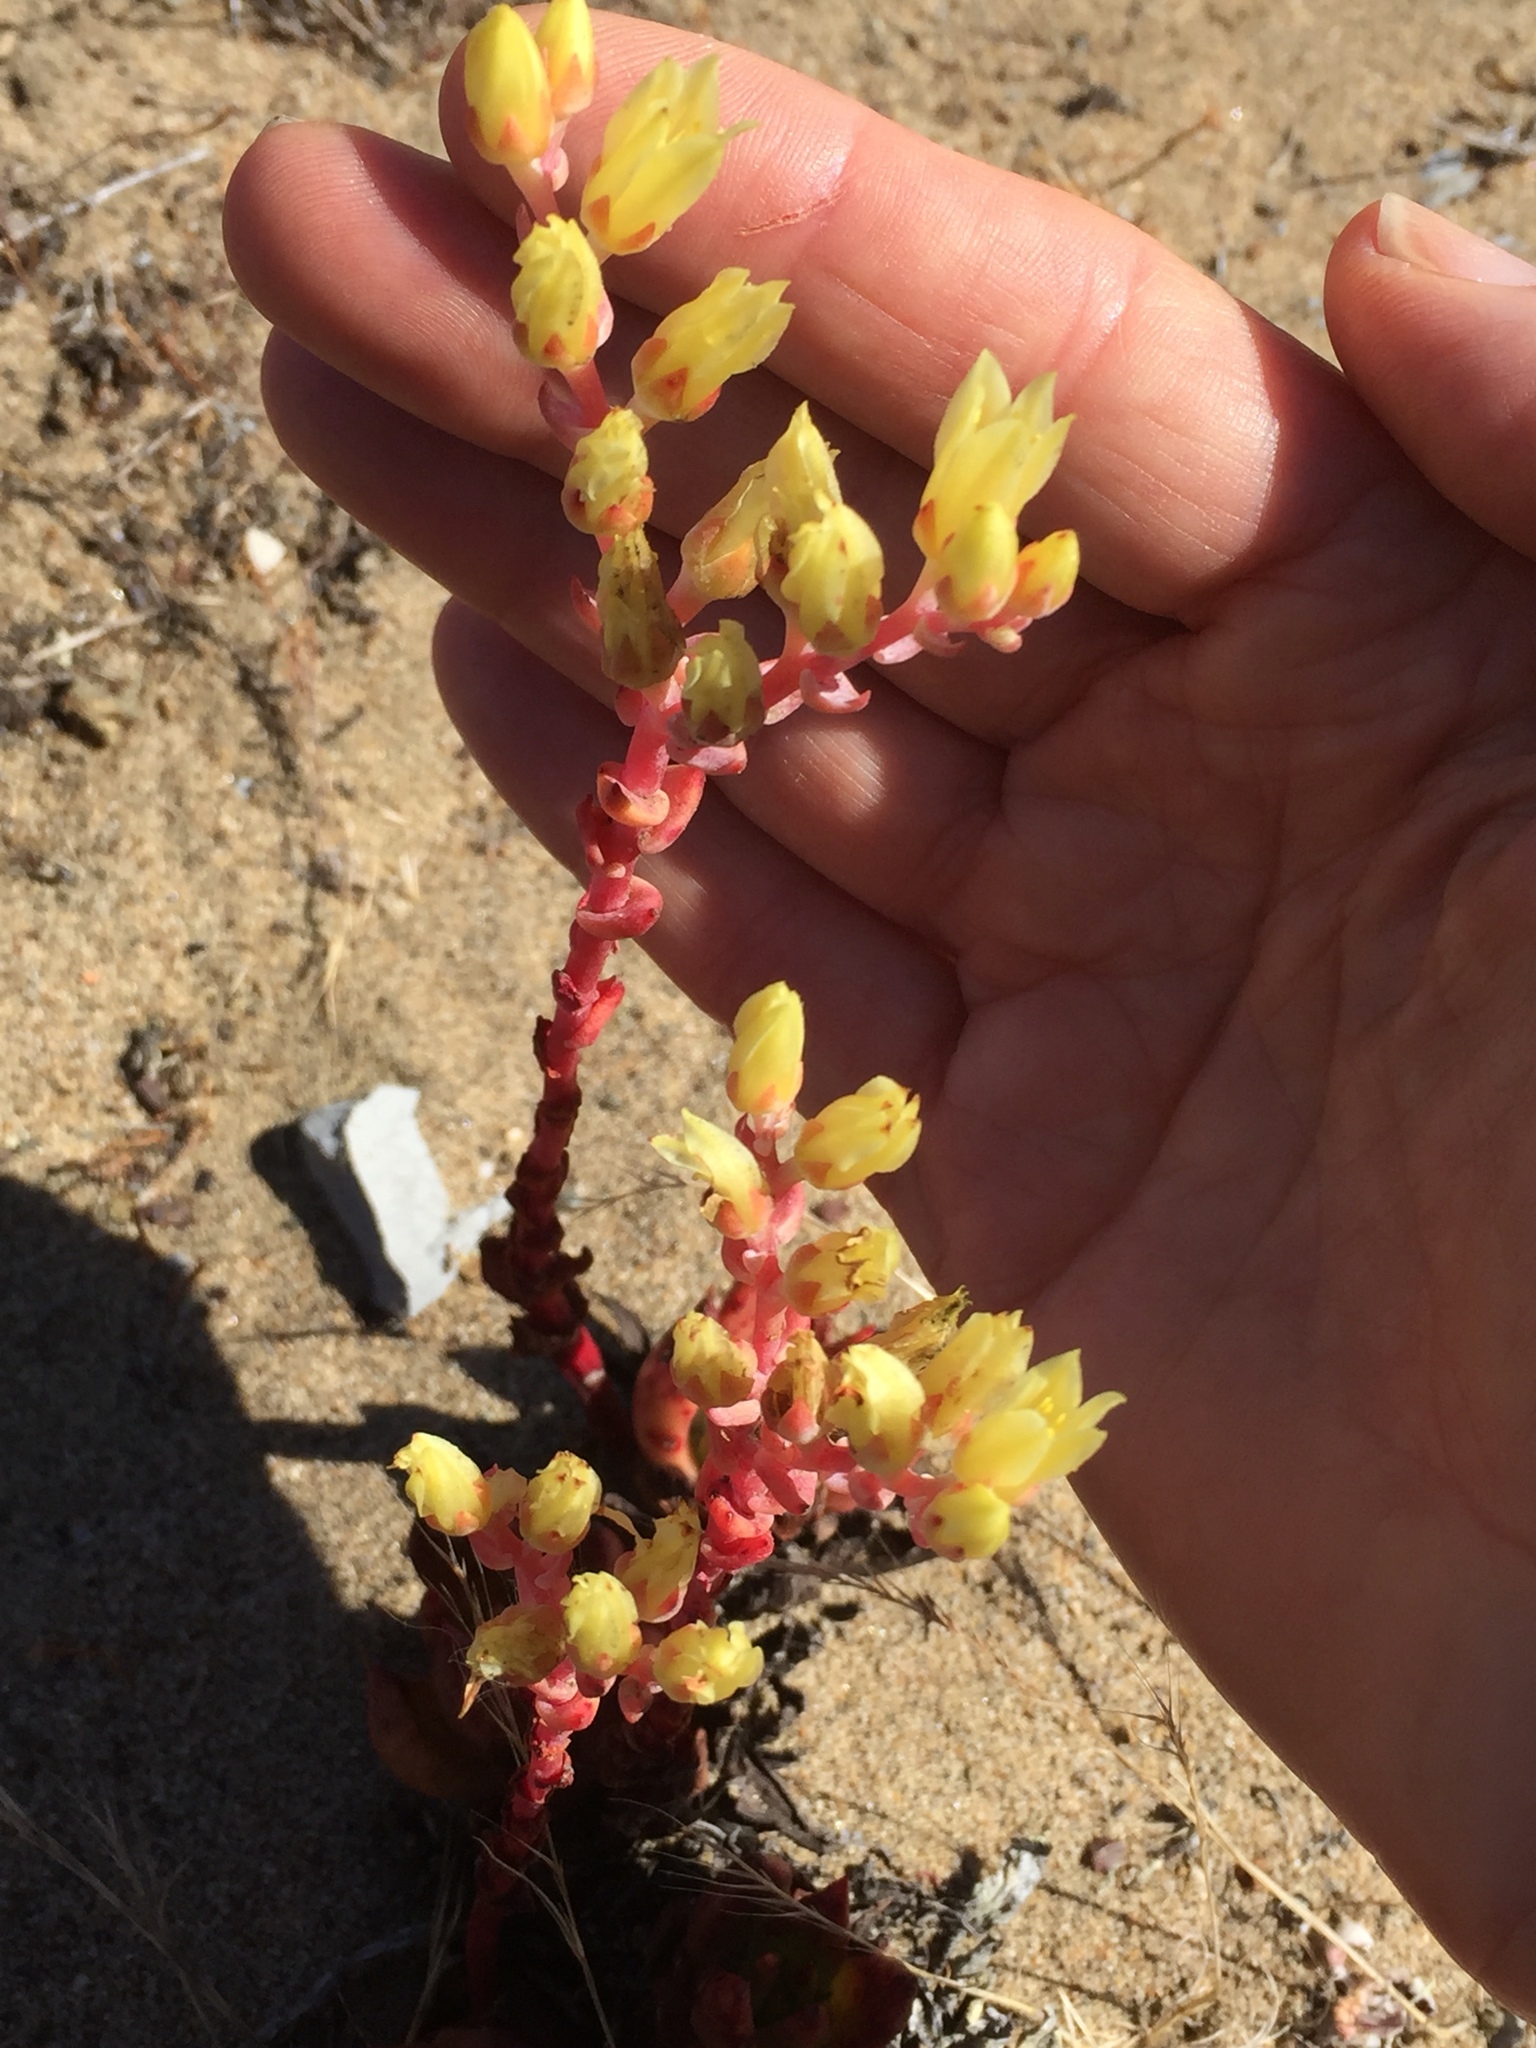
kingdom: Plantae
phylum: Tracheophyta
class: Magnoliopsida
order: Saxifragales
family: Crassulaceae
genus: Dudleya
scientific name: Dudleya farinosa
